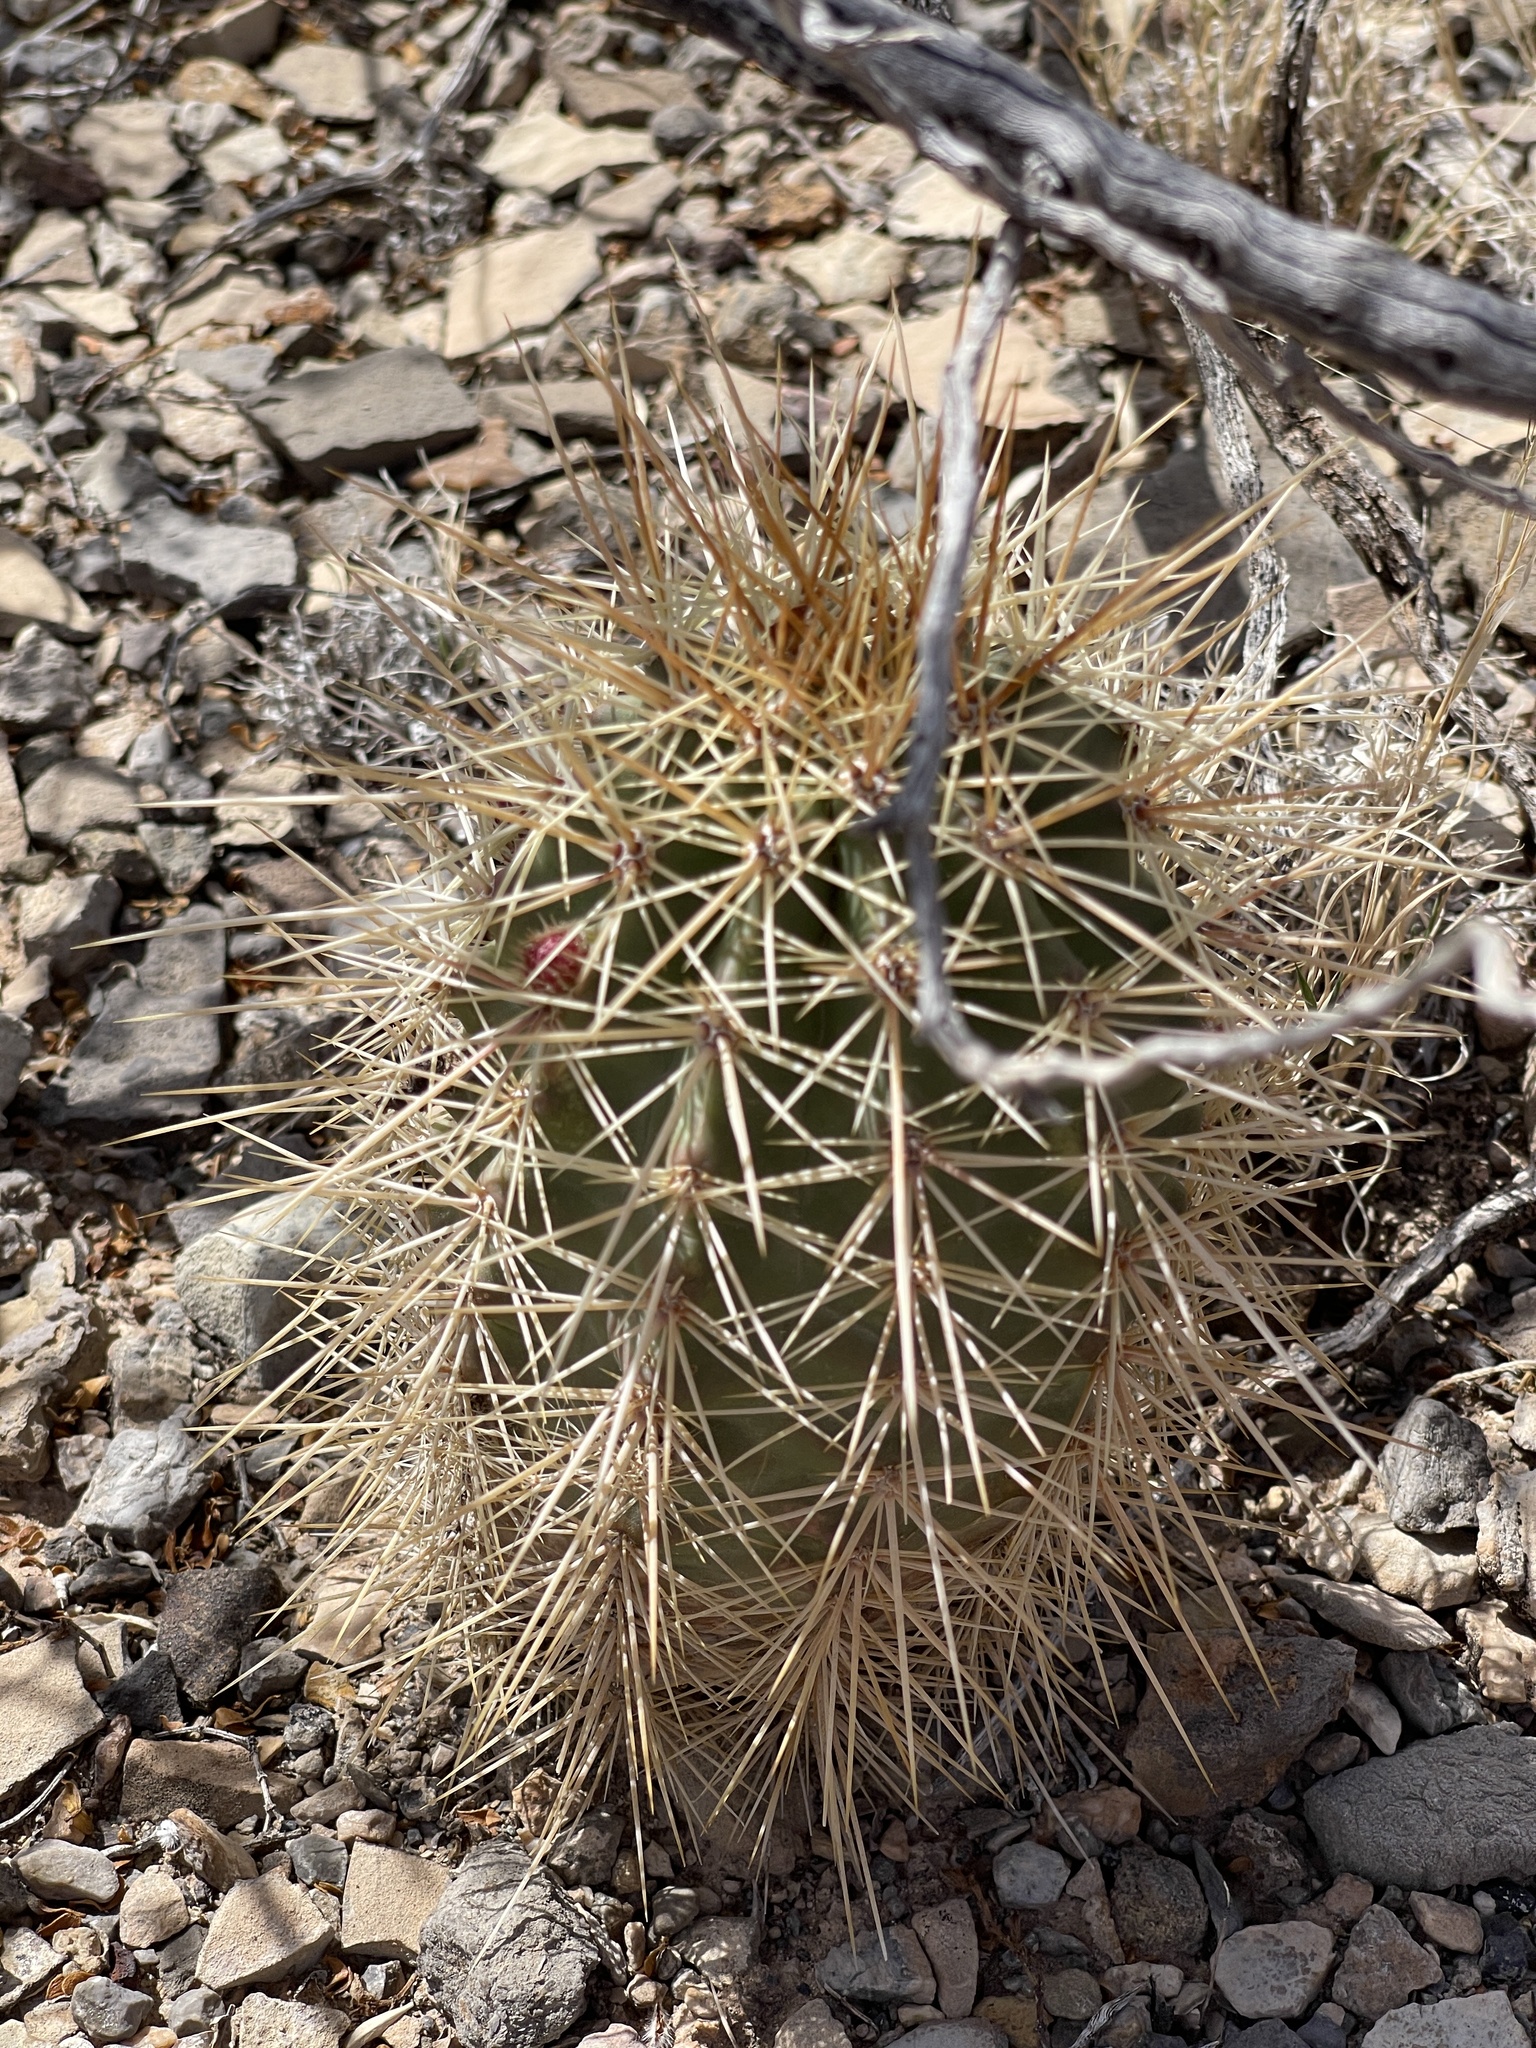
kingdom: Plantae
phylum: Tracheophyta
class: Magnoliopsida
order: Caryophyllales
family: Cactaceae
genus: Echinocereus
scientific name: Echinocereus coccineus
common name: Scarlet hedgehog cactus
